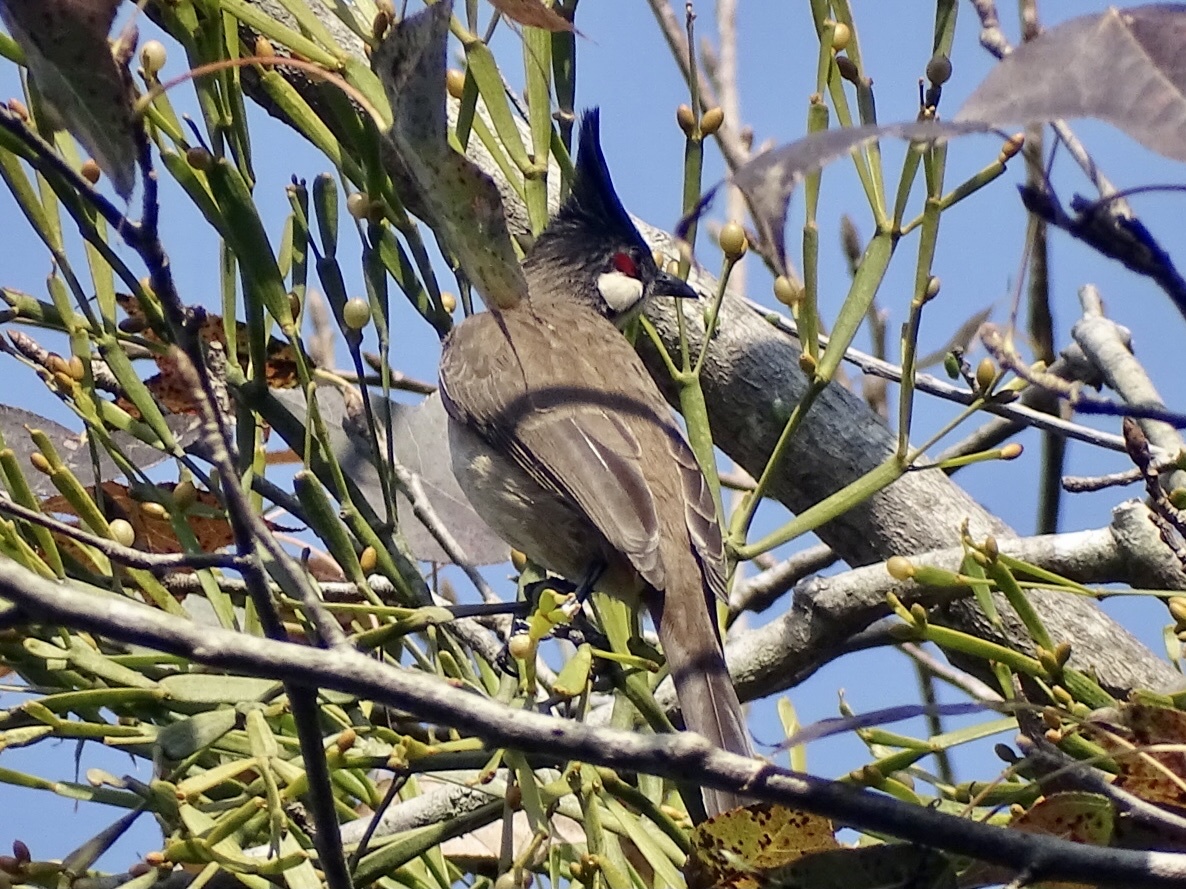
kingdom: Animalia
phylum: Chordata
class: Aves
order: Passeriformes
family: Pycnonotidae
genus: Pycnonotus
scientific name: Pycnonotus jocosus
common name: Red-whiskered bulbul
